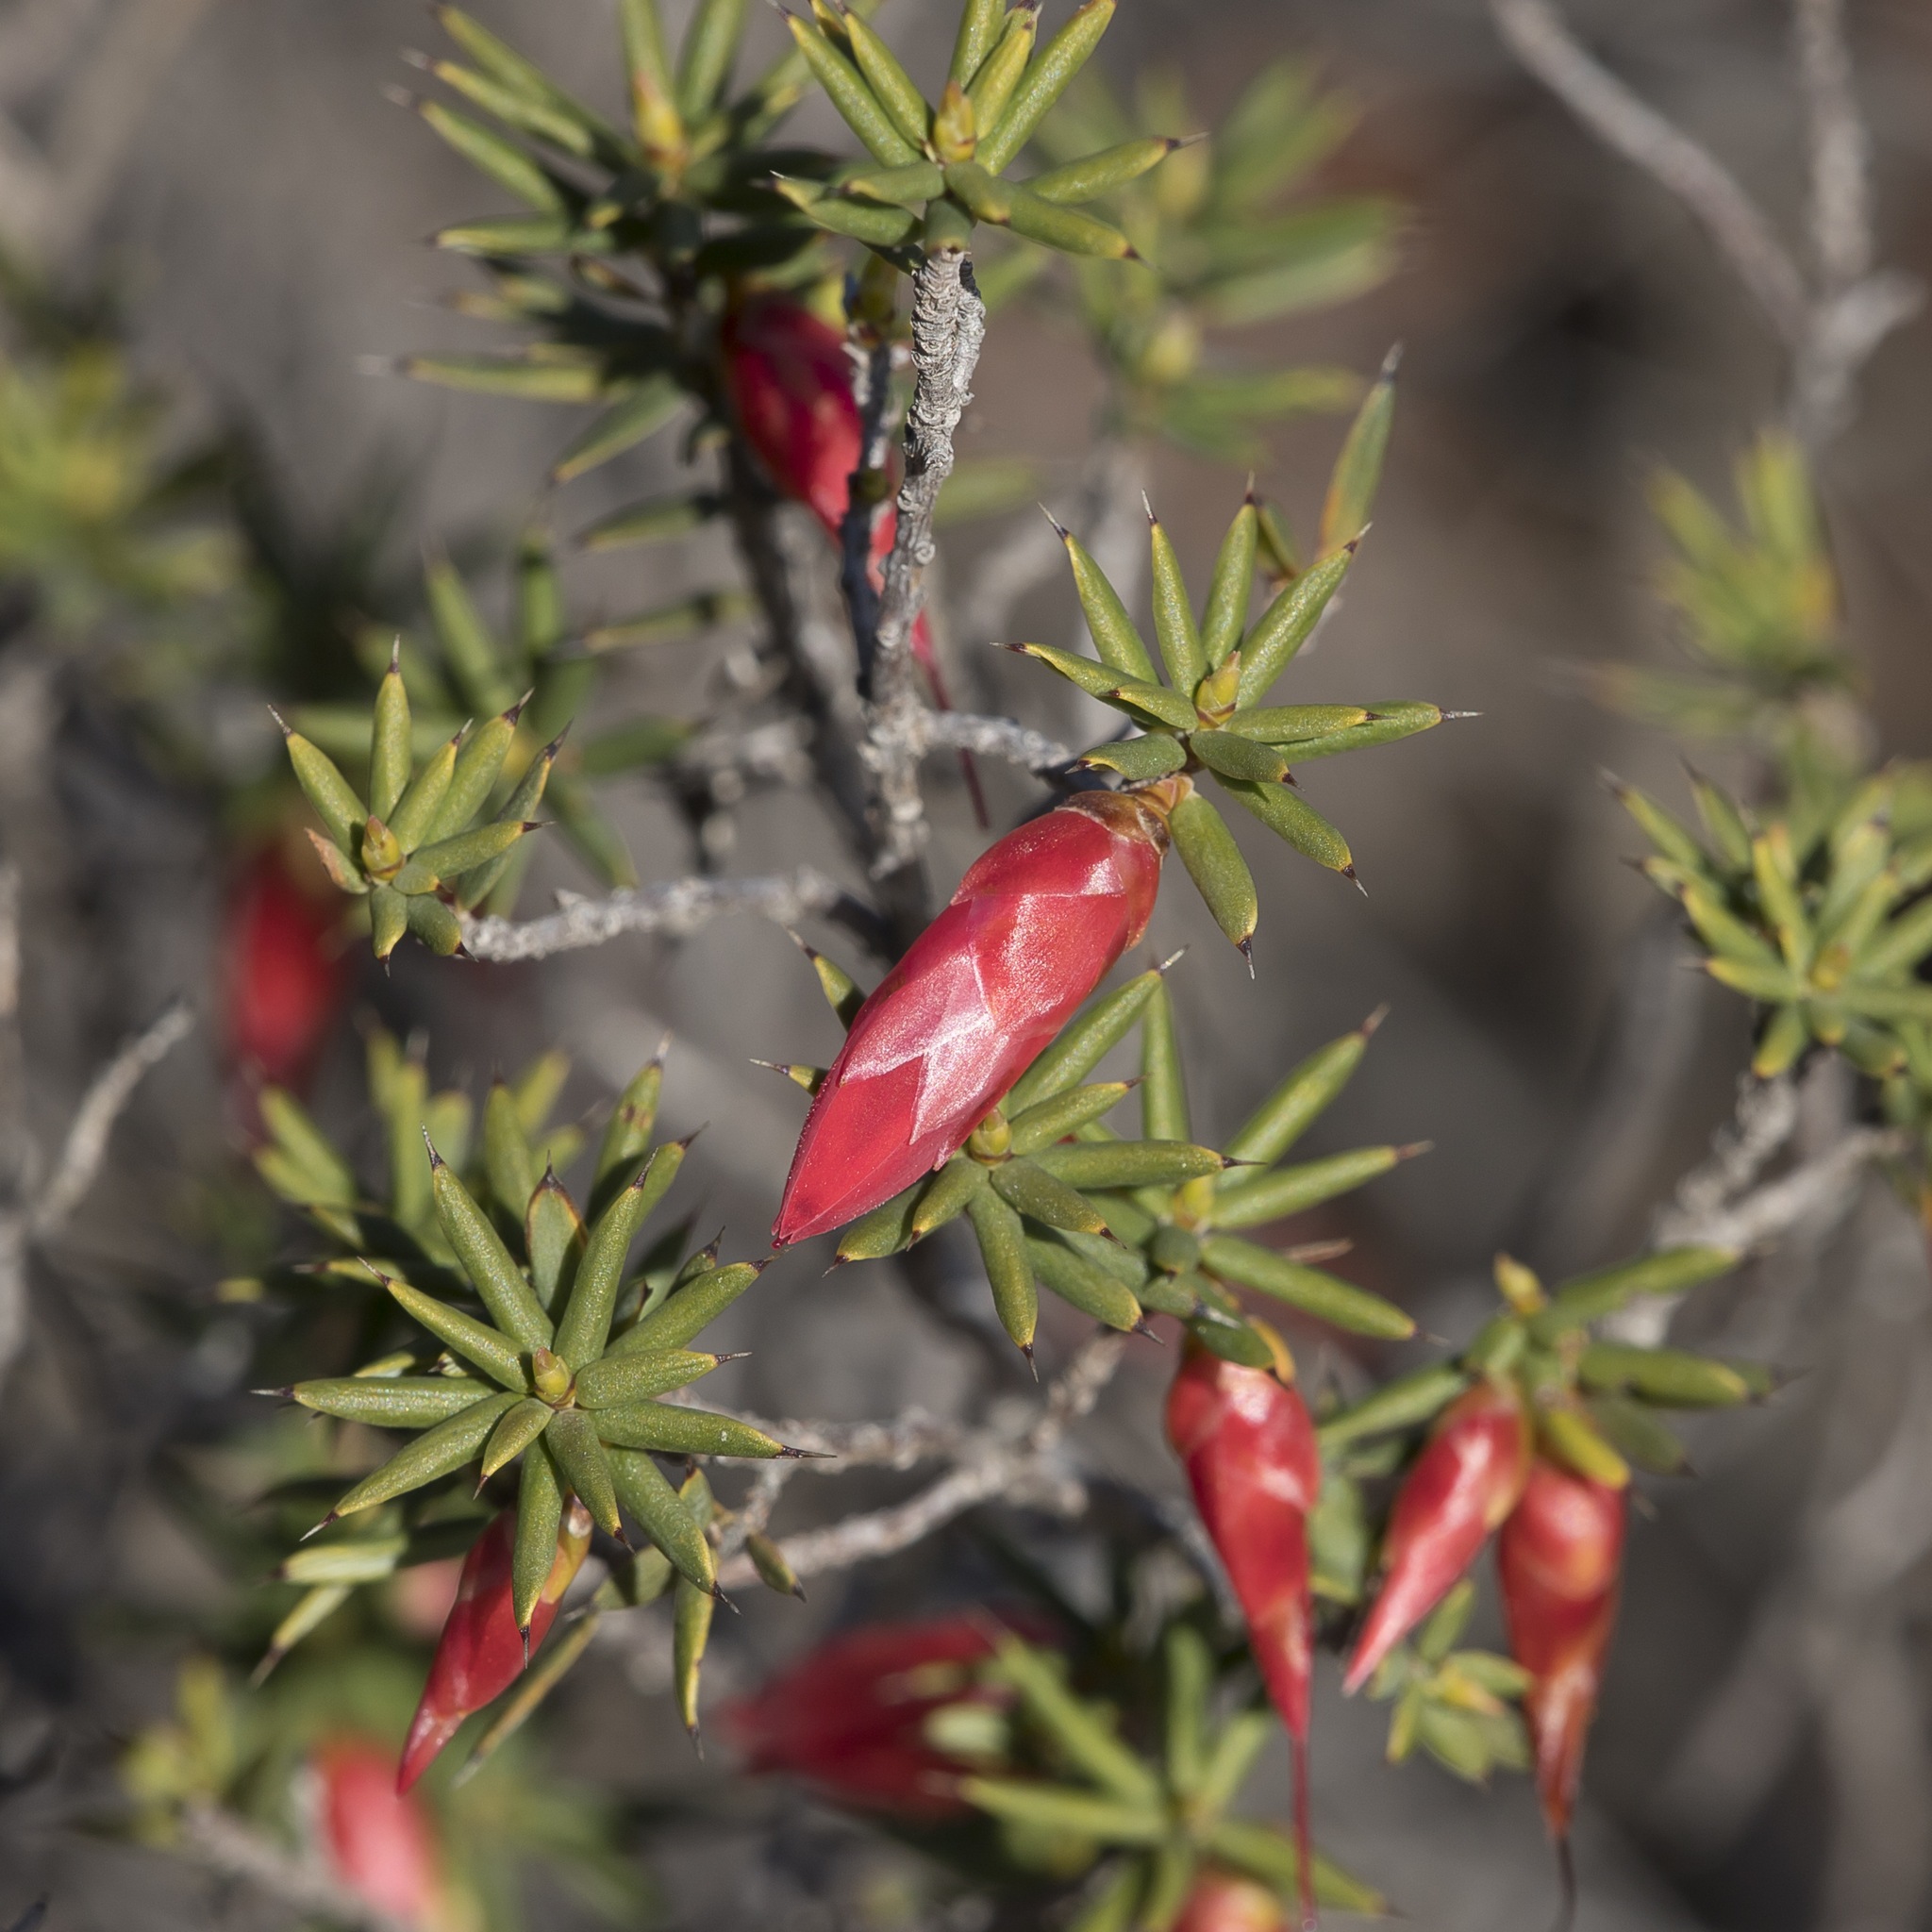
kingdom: Plantae
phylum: Tracheophyta
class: Magnoliopsida
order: Ericales
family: Ericaceae
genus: Stenanthera
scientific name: Stenanthera conostephioides
